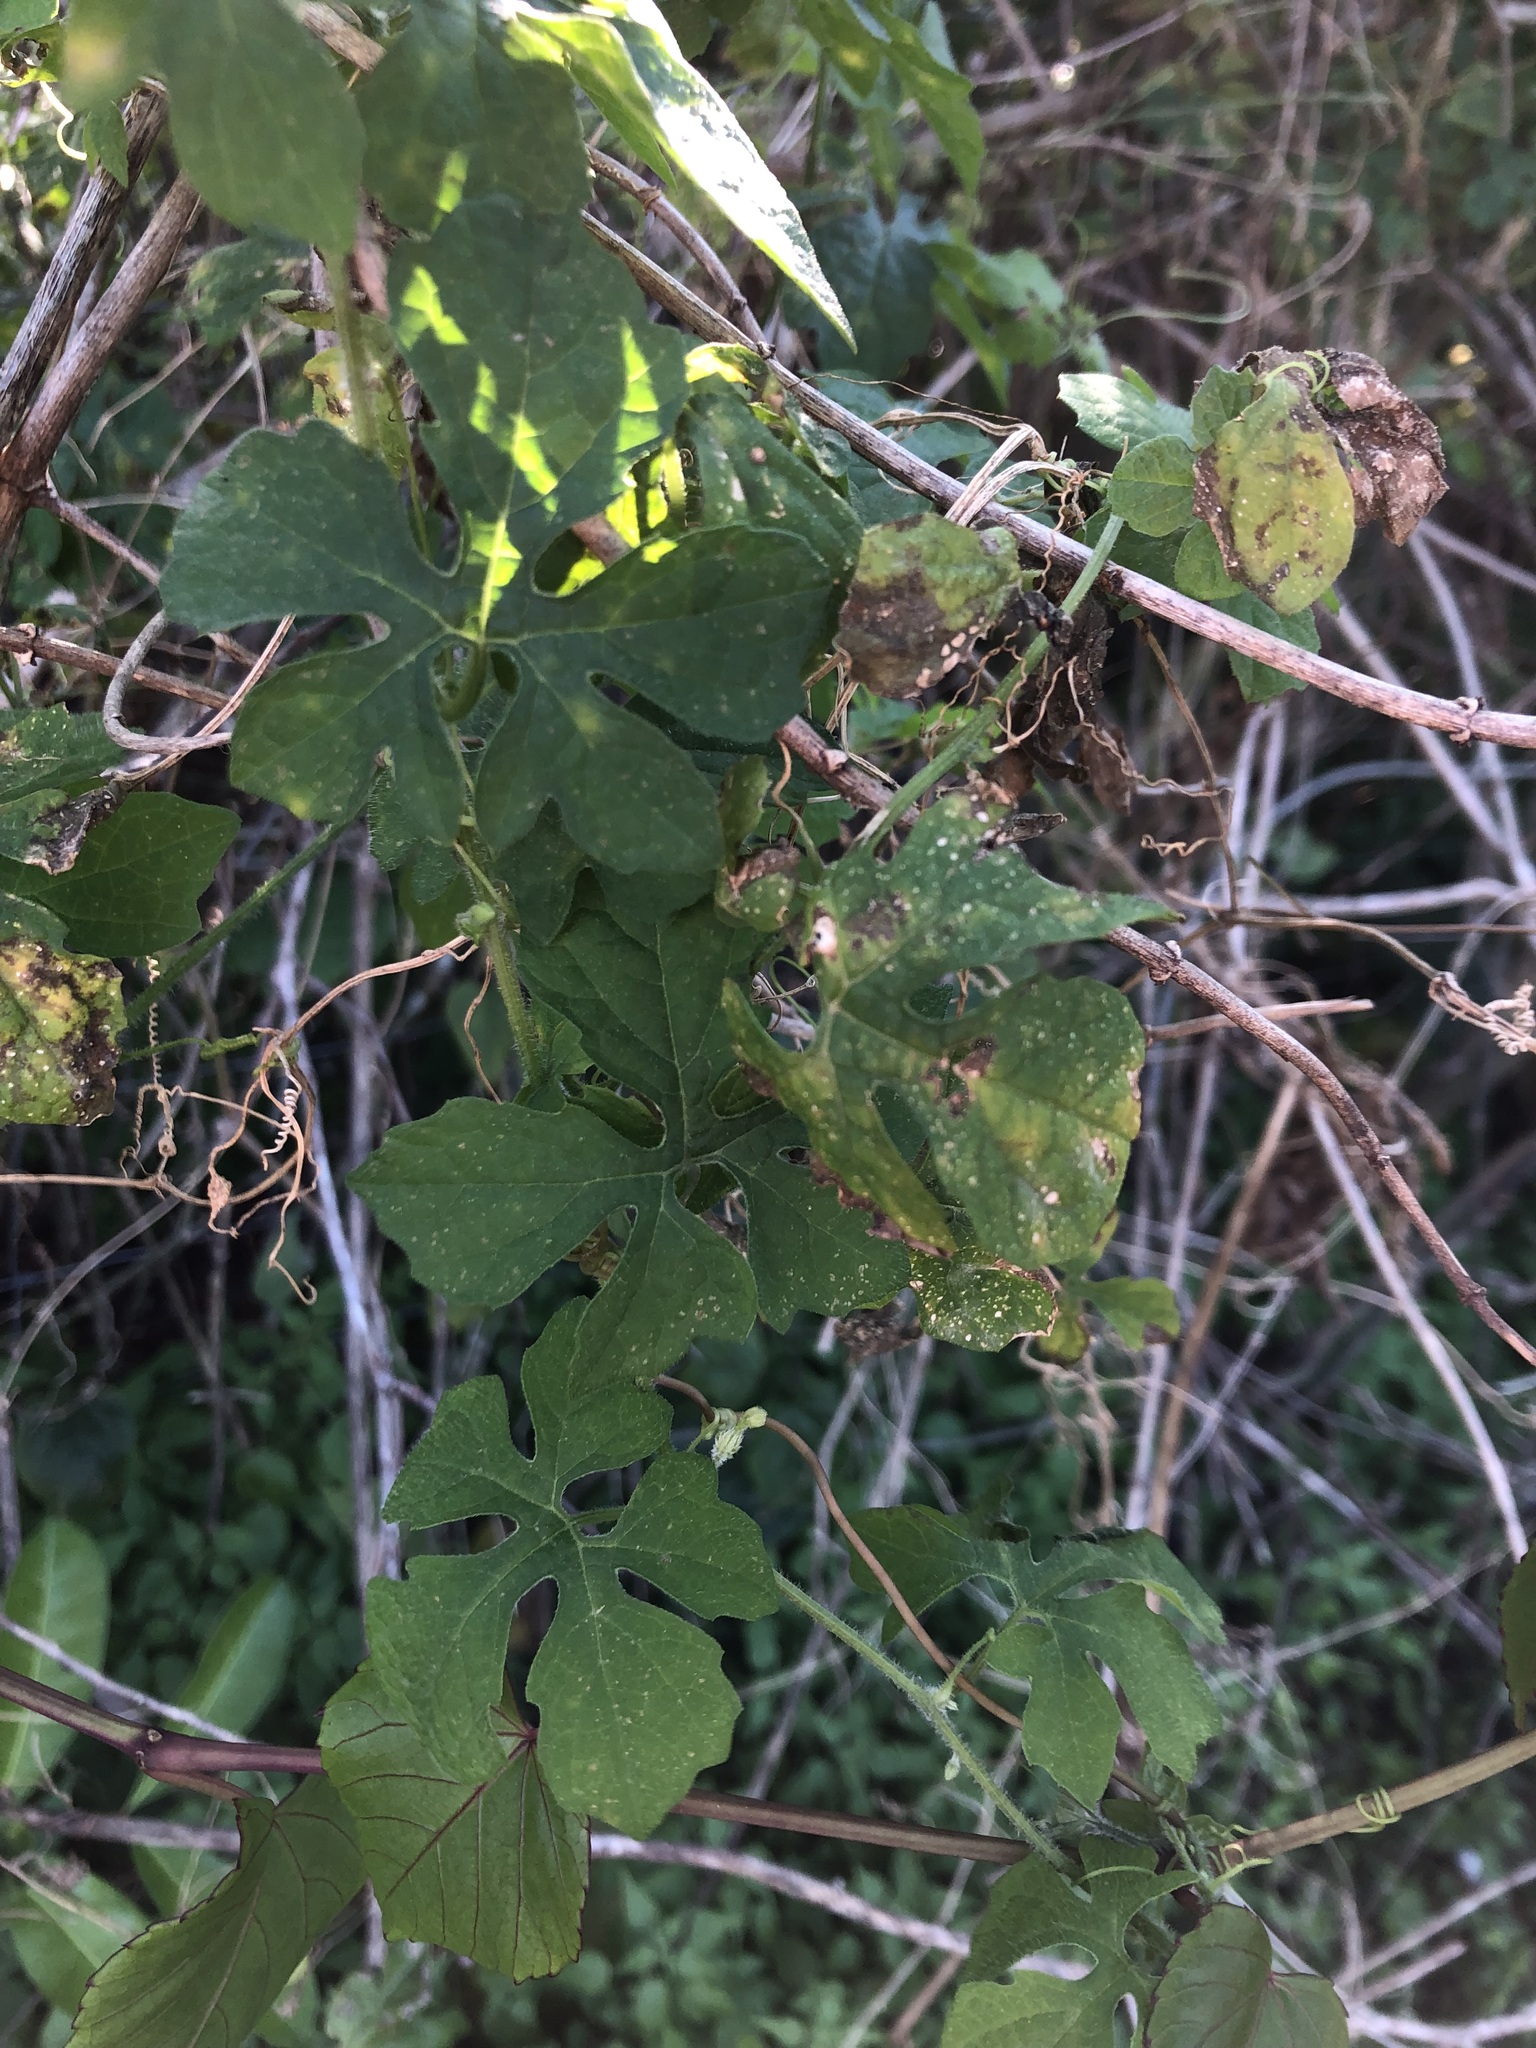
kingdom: Plantae
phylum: Tracheophyta
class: Magnoliopsida
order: Cucurbitales
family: Cucurbitaceae
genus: Momordica
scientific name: Momordica charantia
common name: Balsampear
